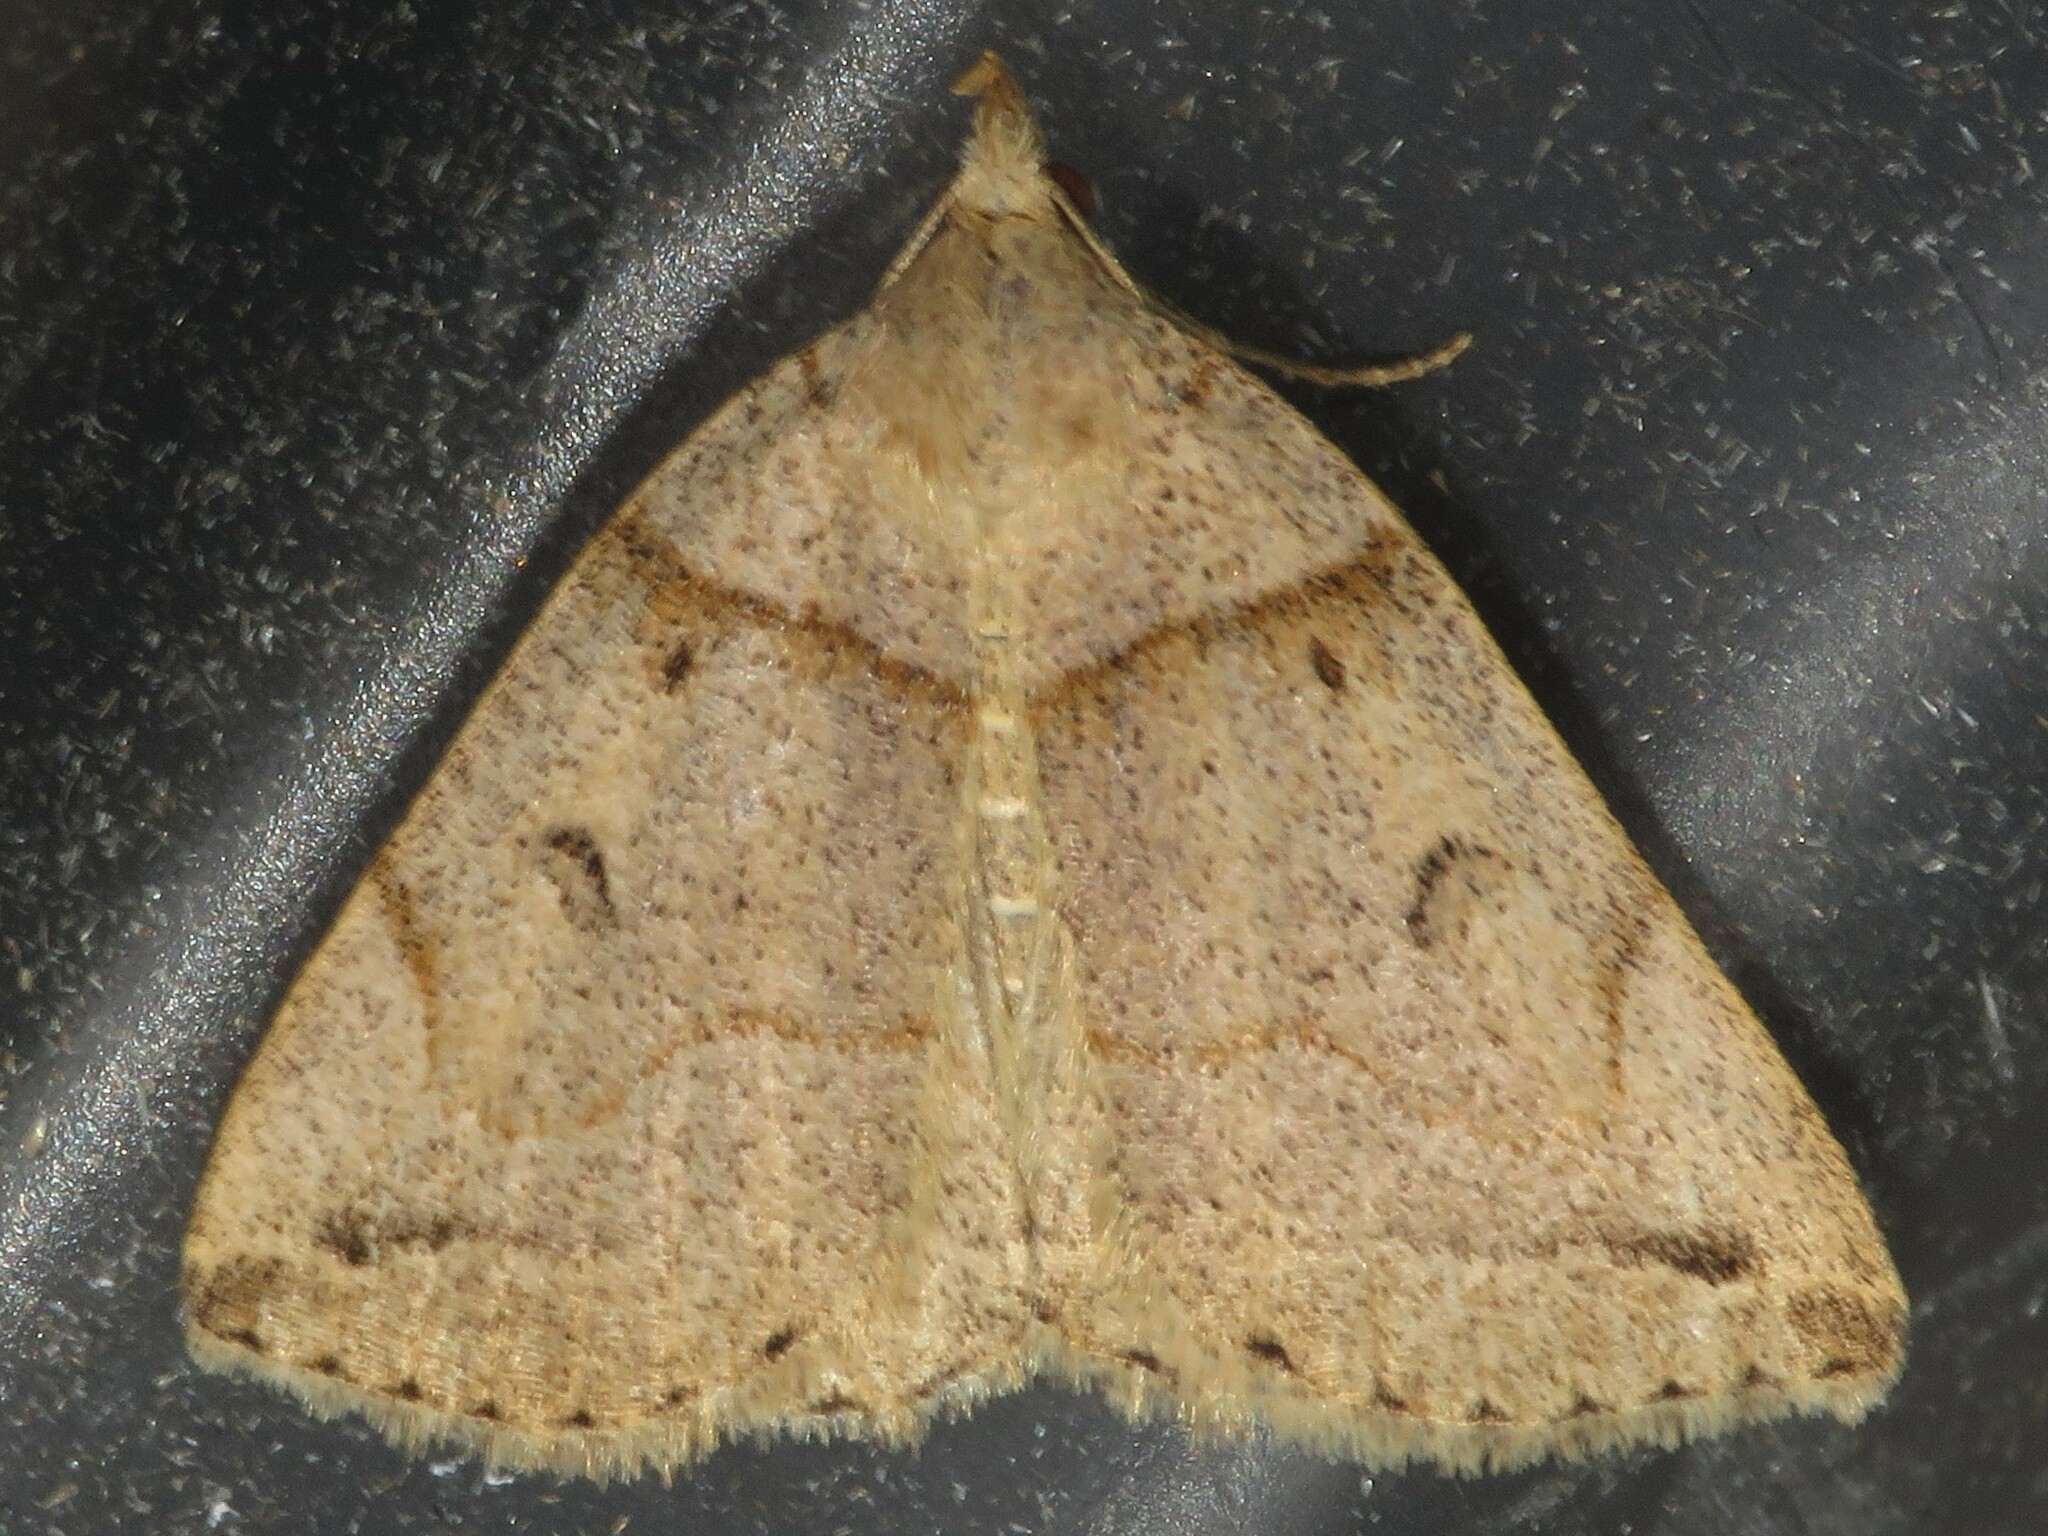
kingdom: Animalia
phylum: Arthropoda
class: Insecta
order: Lepidoptera
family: Erebidae
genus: Zanclognatha
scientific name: Zanclognatha laevigata
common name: Variable fan-foot
